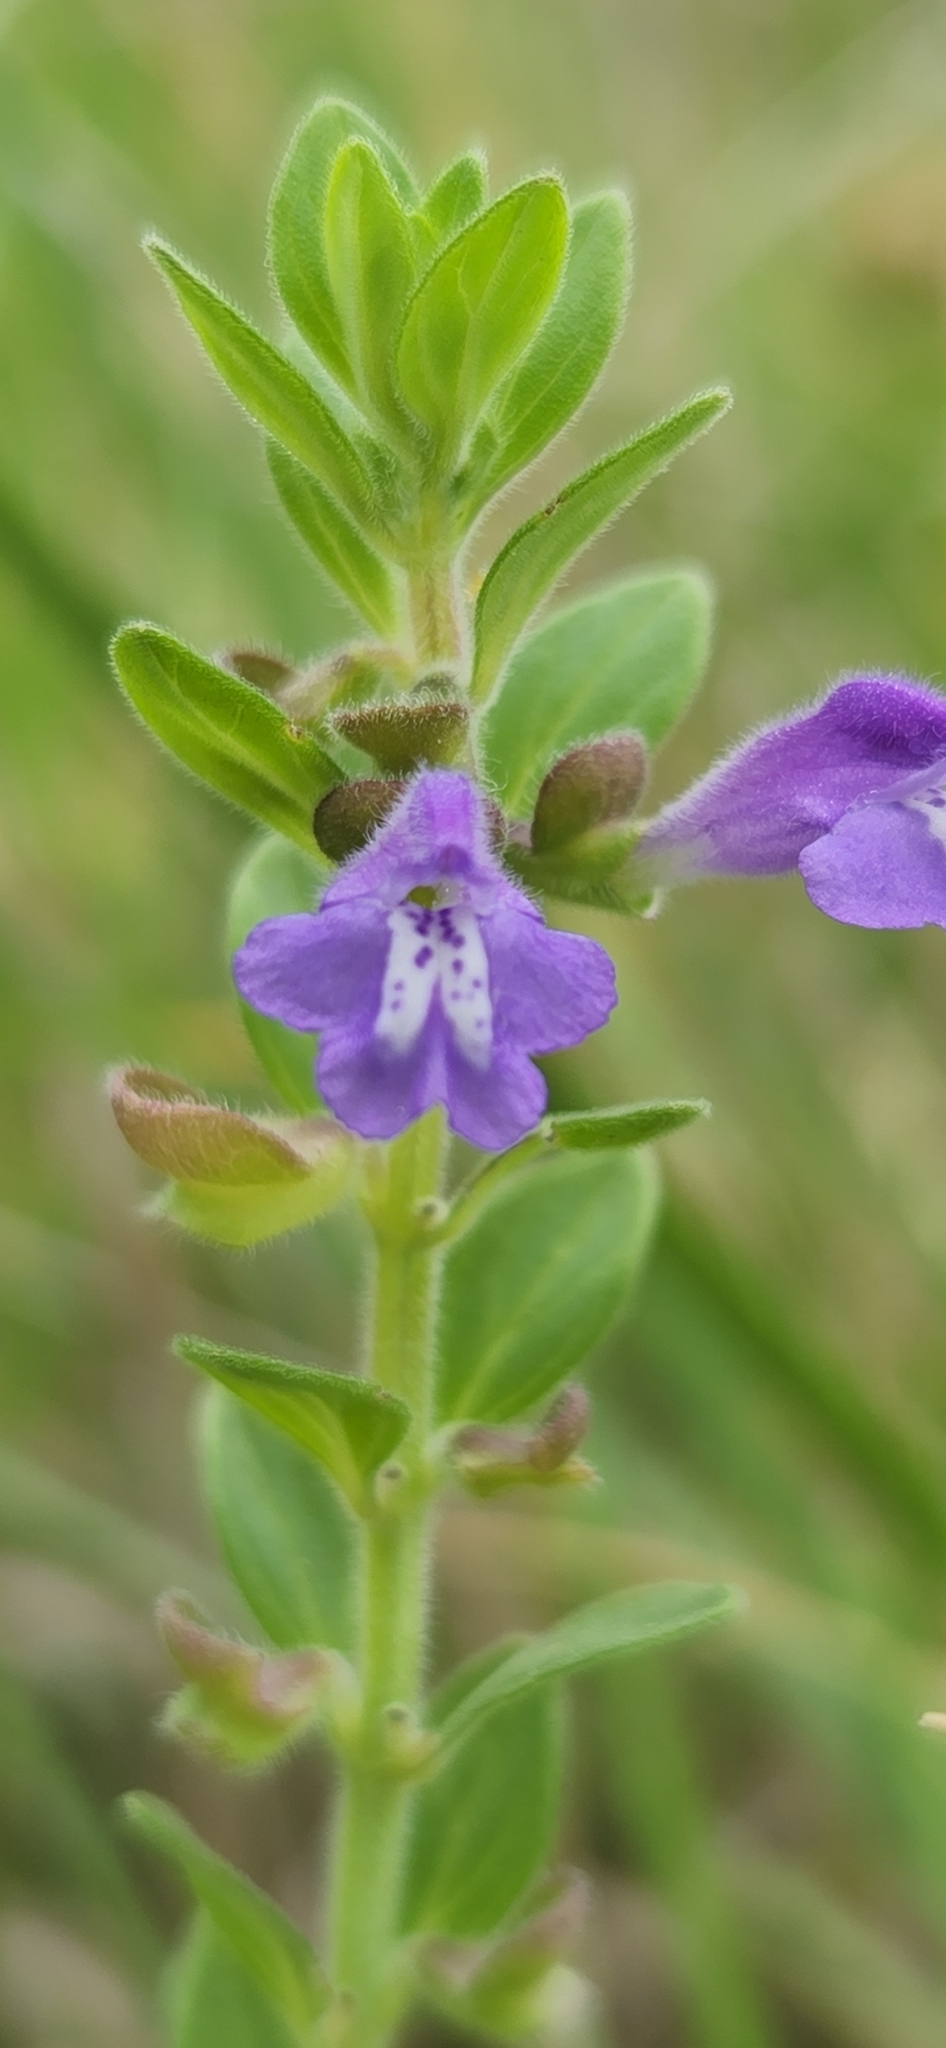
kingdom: Plantae
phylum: Tracheophyta
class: Magnoliopsida
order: Lamiales
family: Lamiaceae
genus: Scutellaria
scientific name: Scutellaria drummondii
